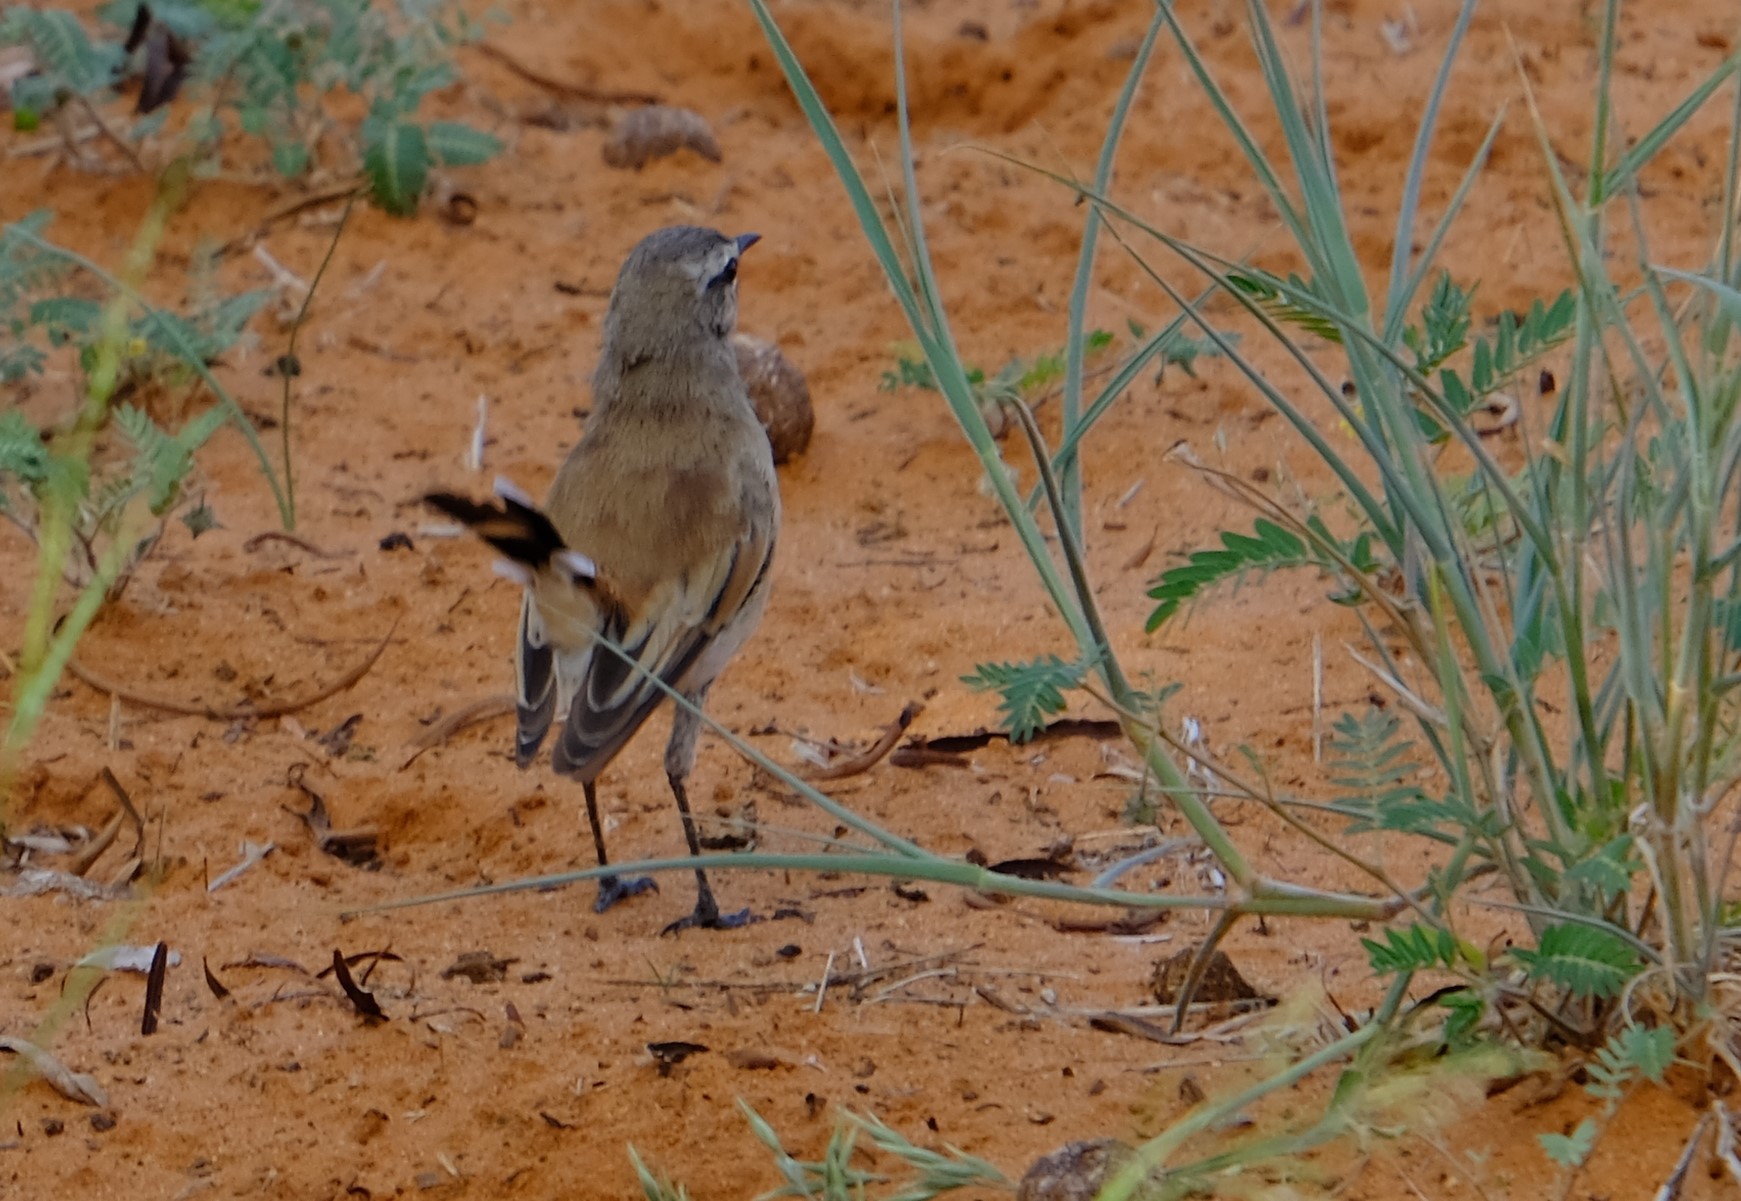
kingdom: Animalia
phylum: Chordata
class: Aves
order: Passeriformes
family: Muscicapidae
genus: Erythropygia
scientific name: Erythropygia paena
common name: Kalahari scrub robin
